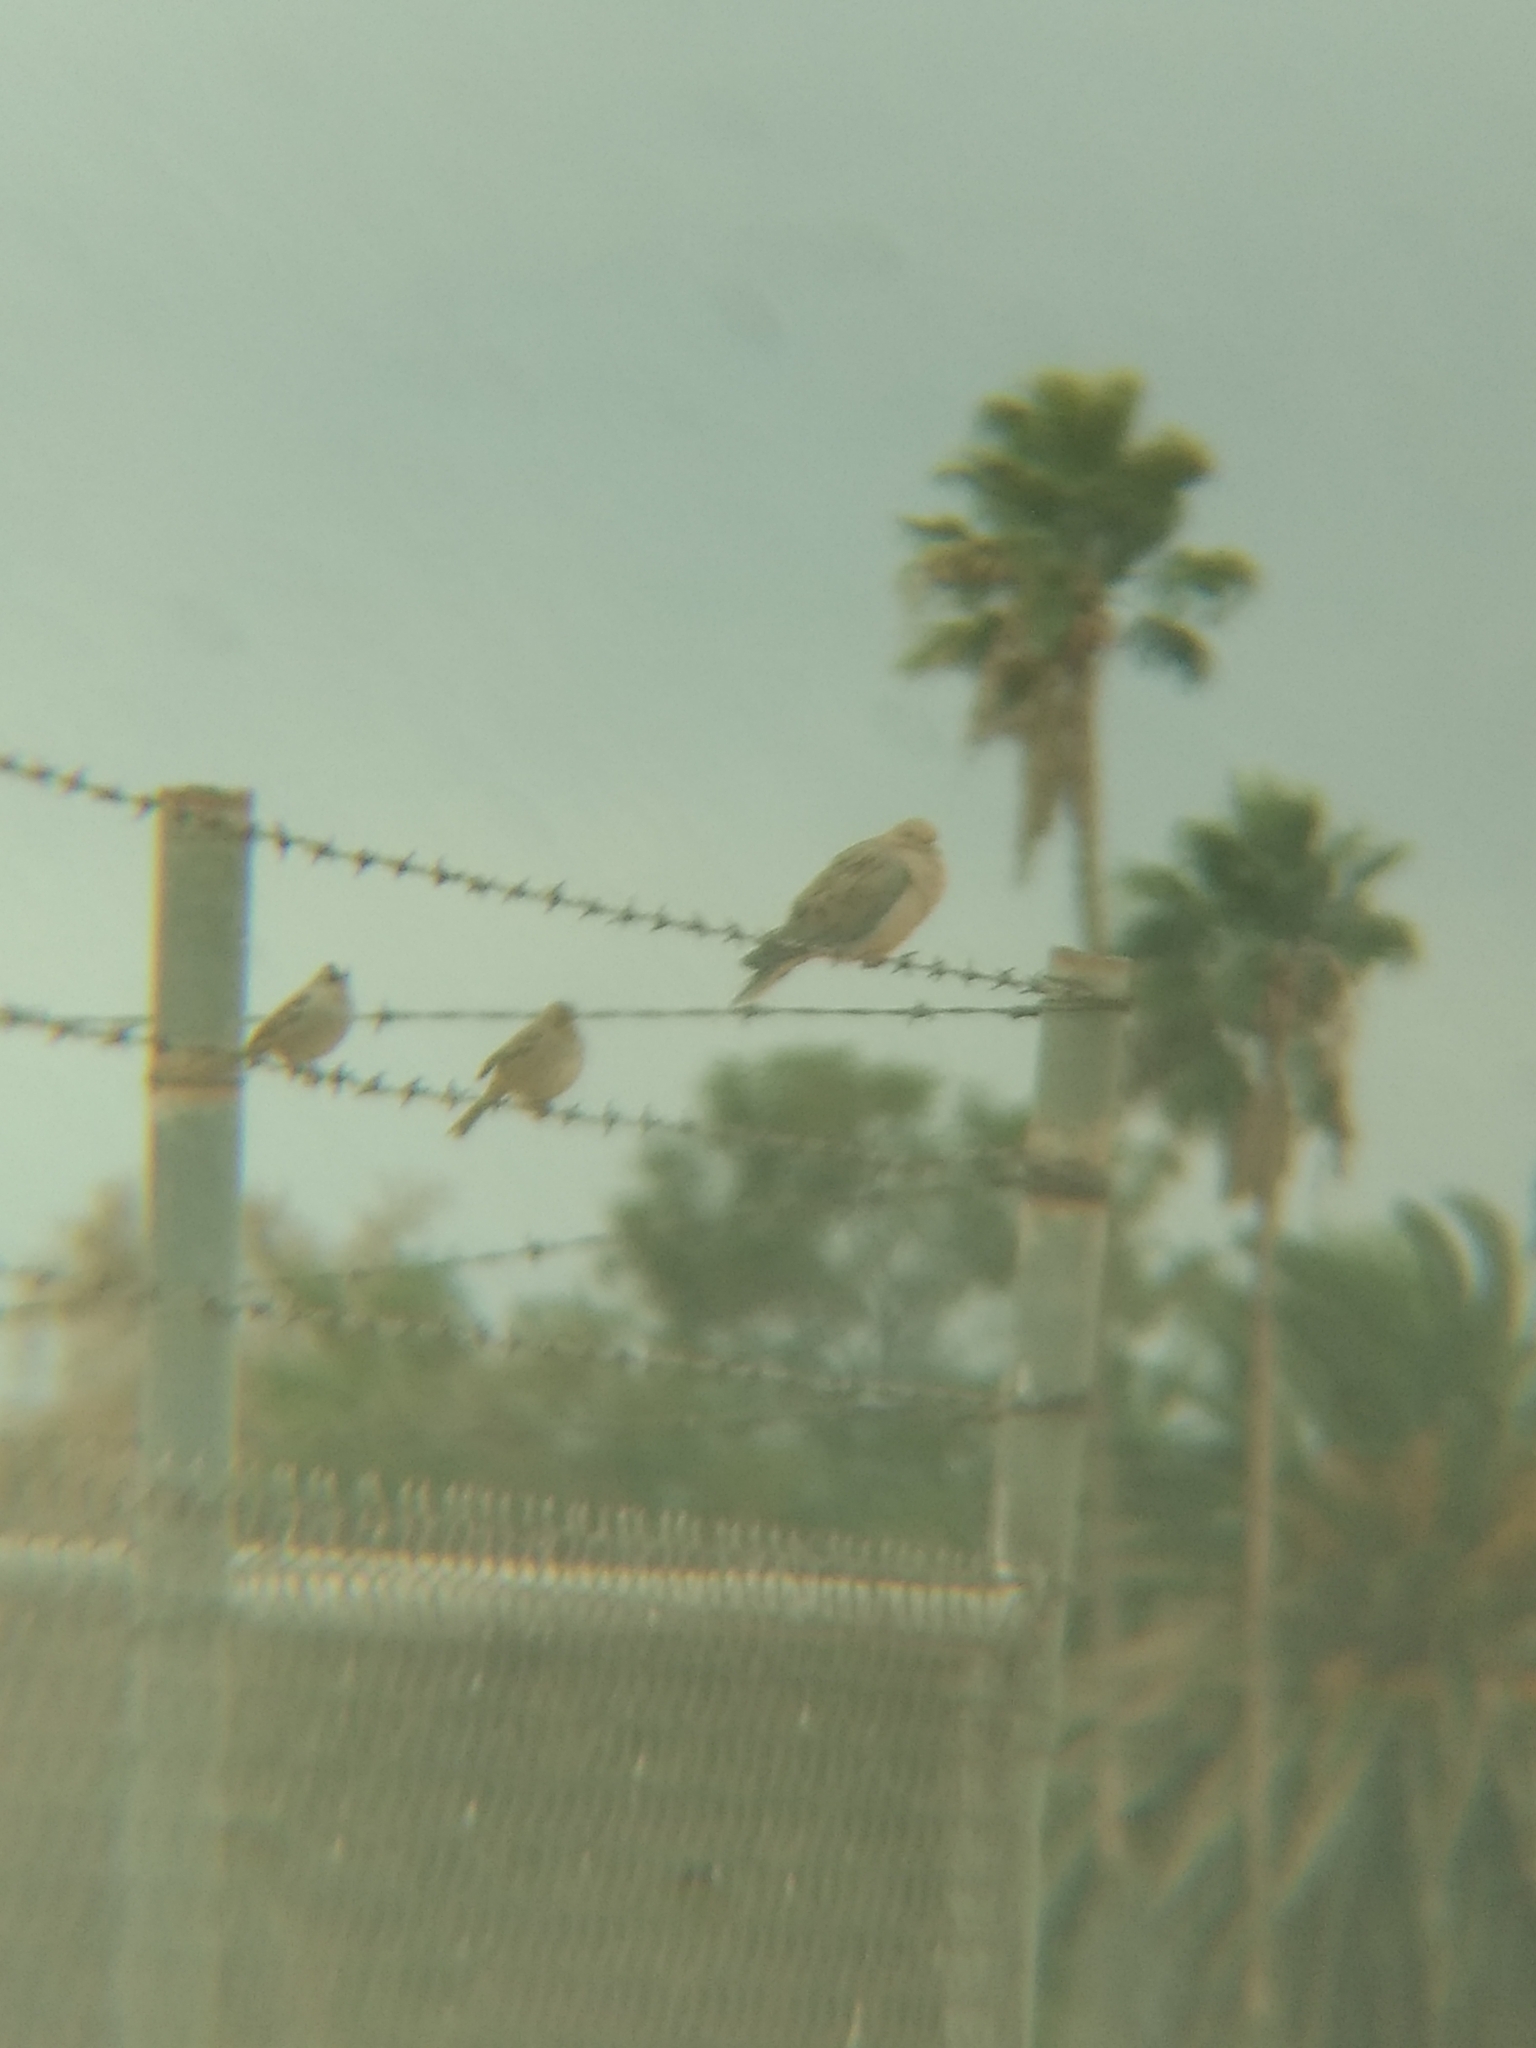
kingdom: Animalia
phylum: Chordata
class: Aves
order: Columbiformes
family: Columbidae
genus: Zenaida
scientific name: Zenaida macroura
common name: Mourning dove
